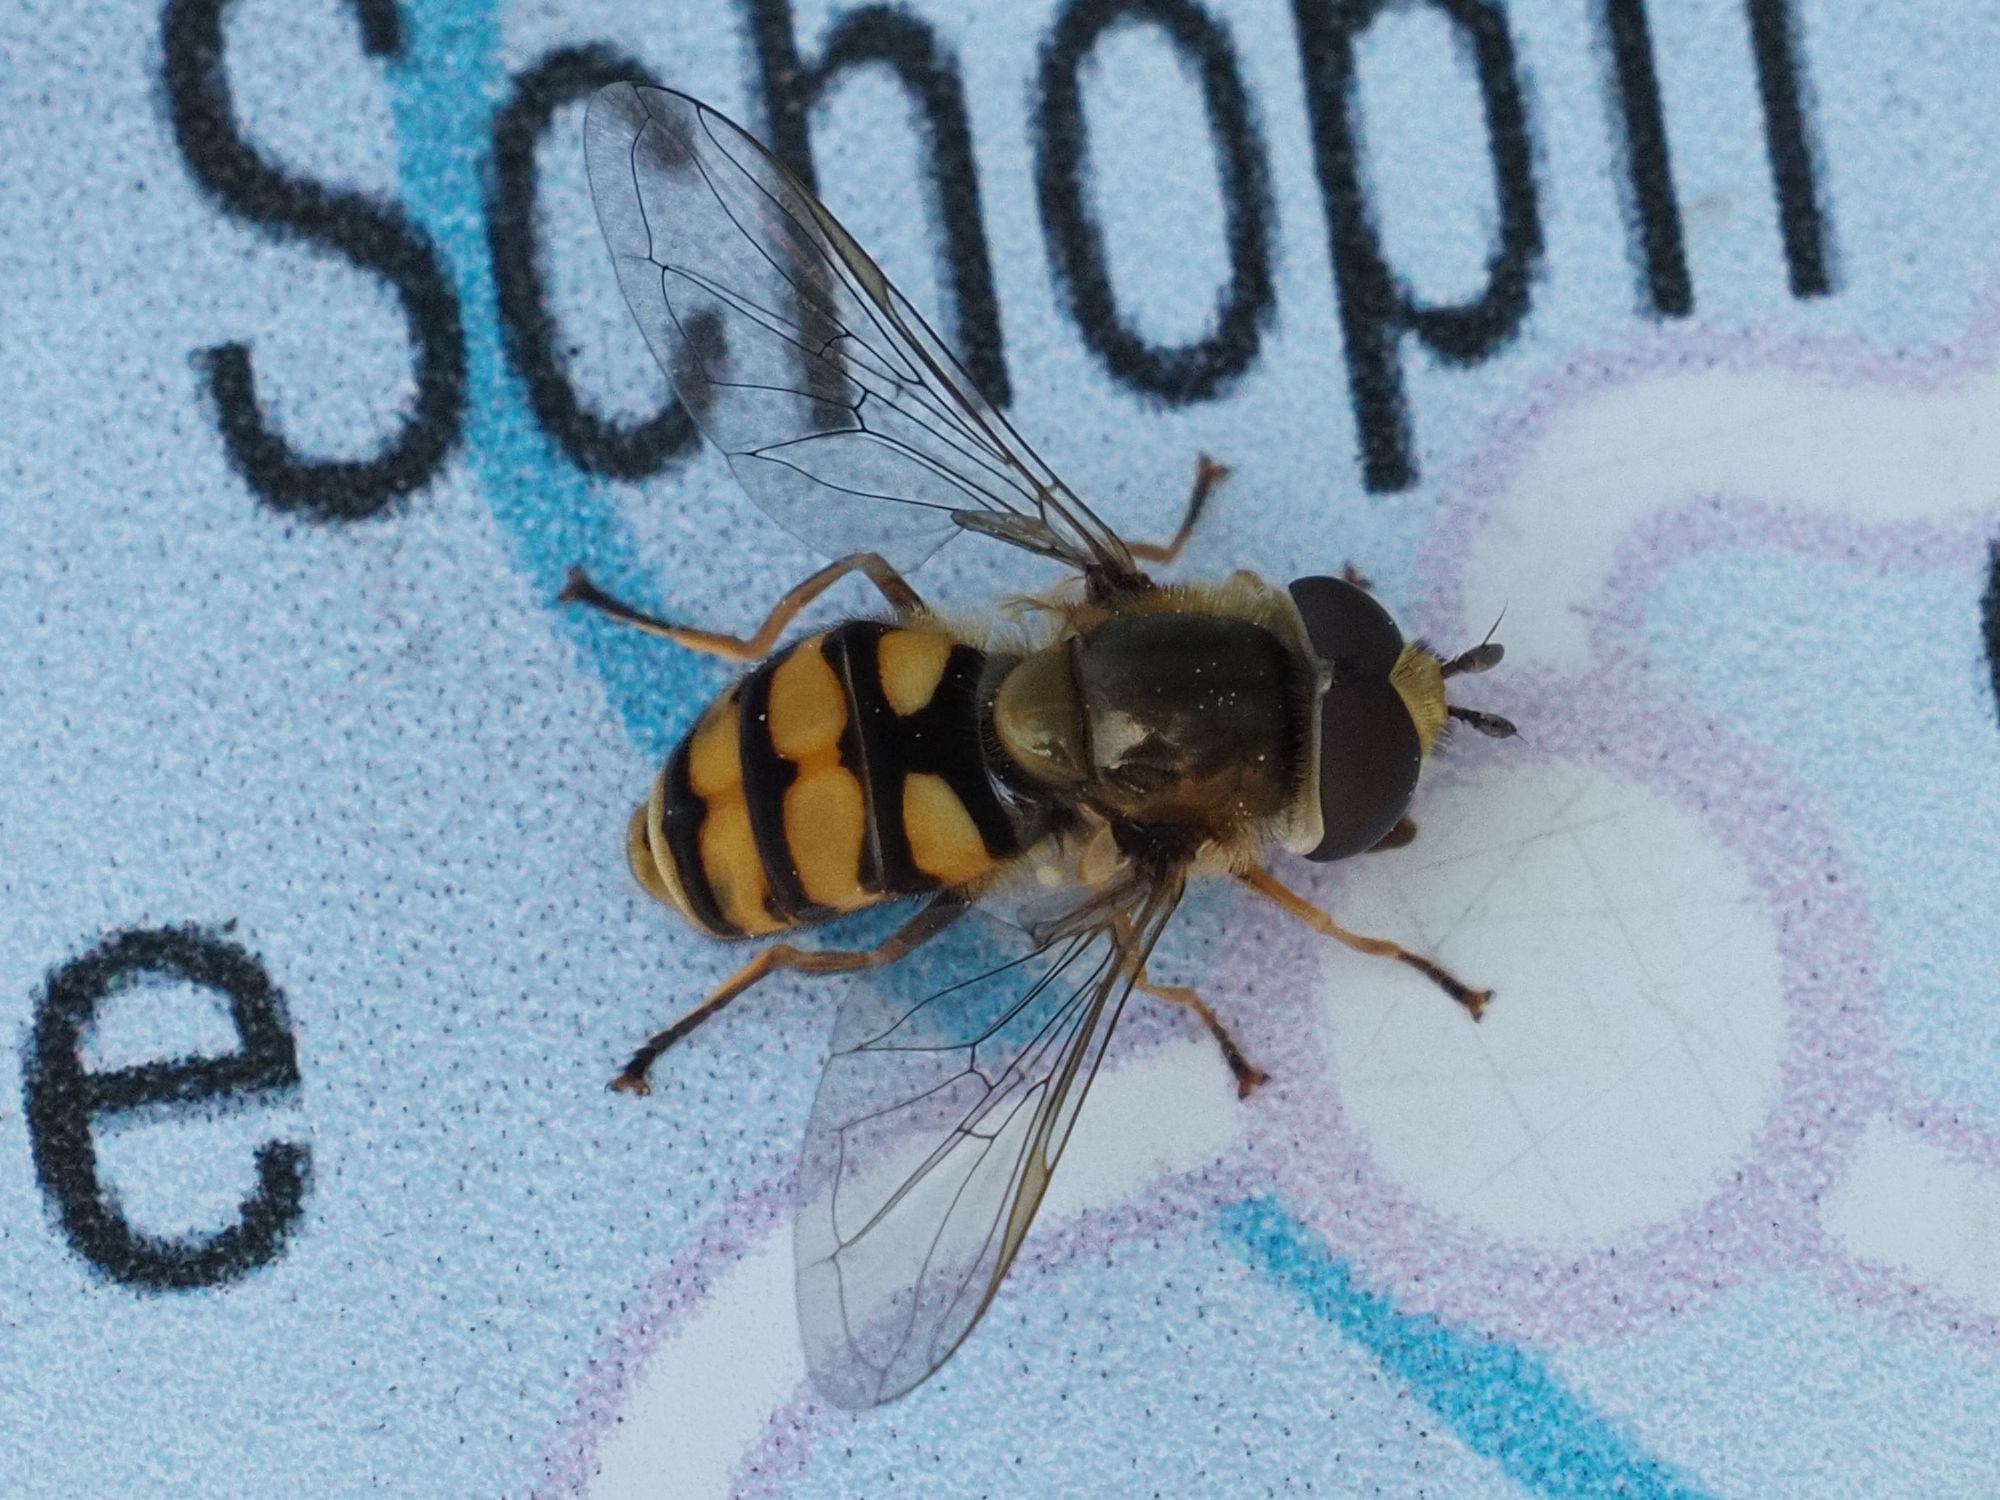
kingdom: Animalia
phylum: Arthropoda
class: Insecta
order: Diptera
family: Syrphidae
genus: Eupeodes
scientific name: Eupeodes corollae
